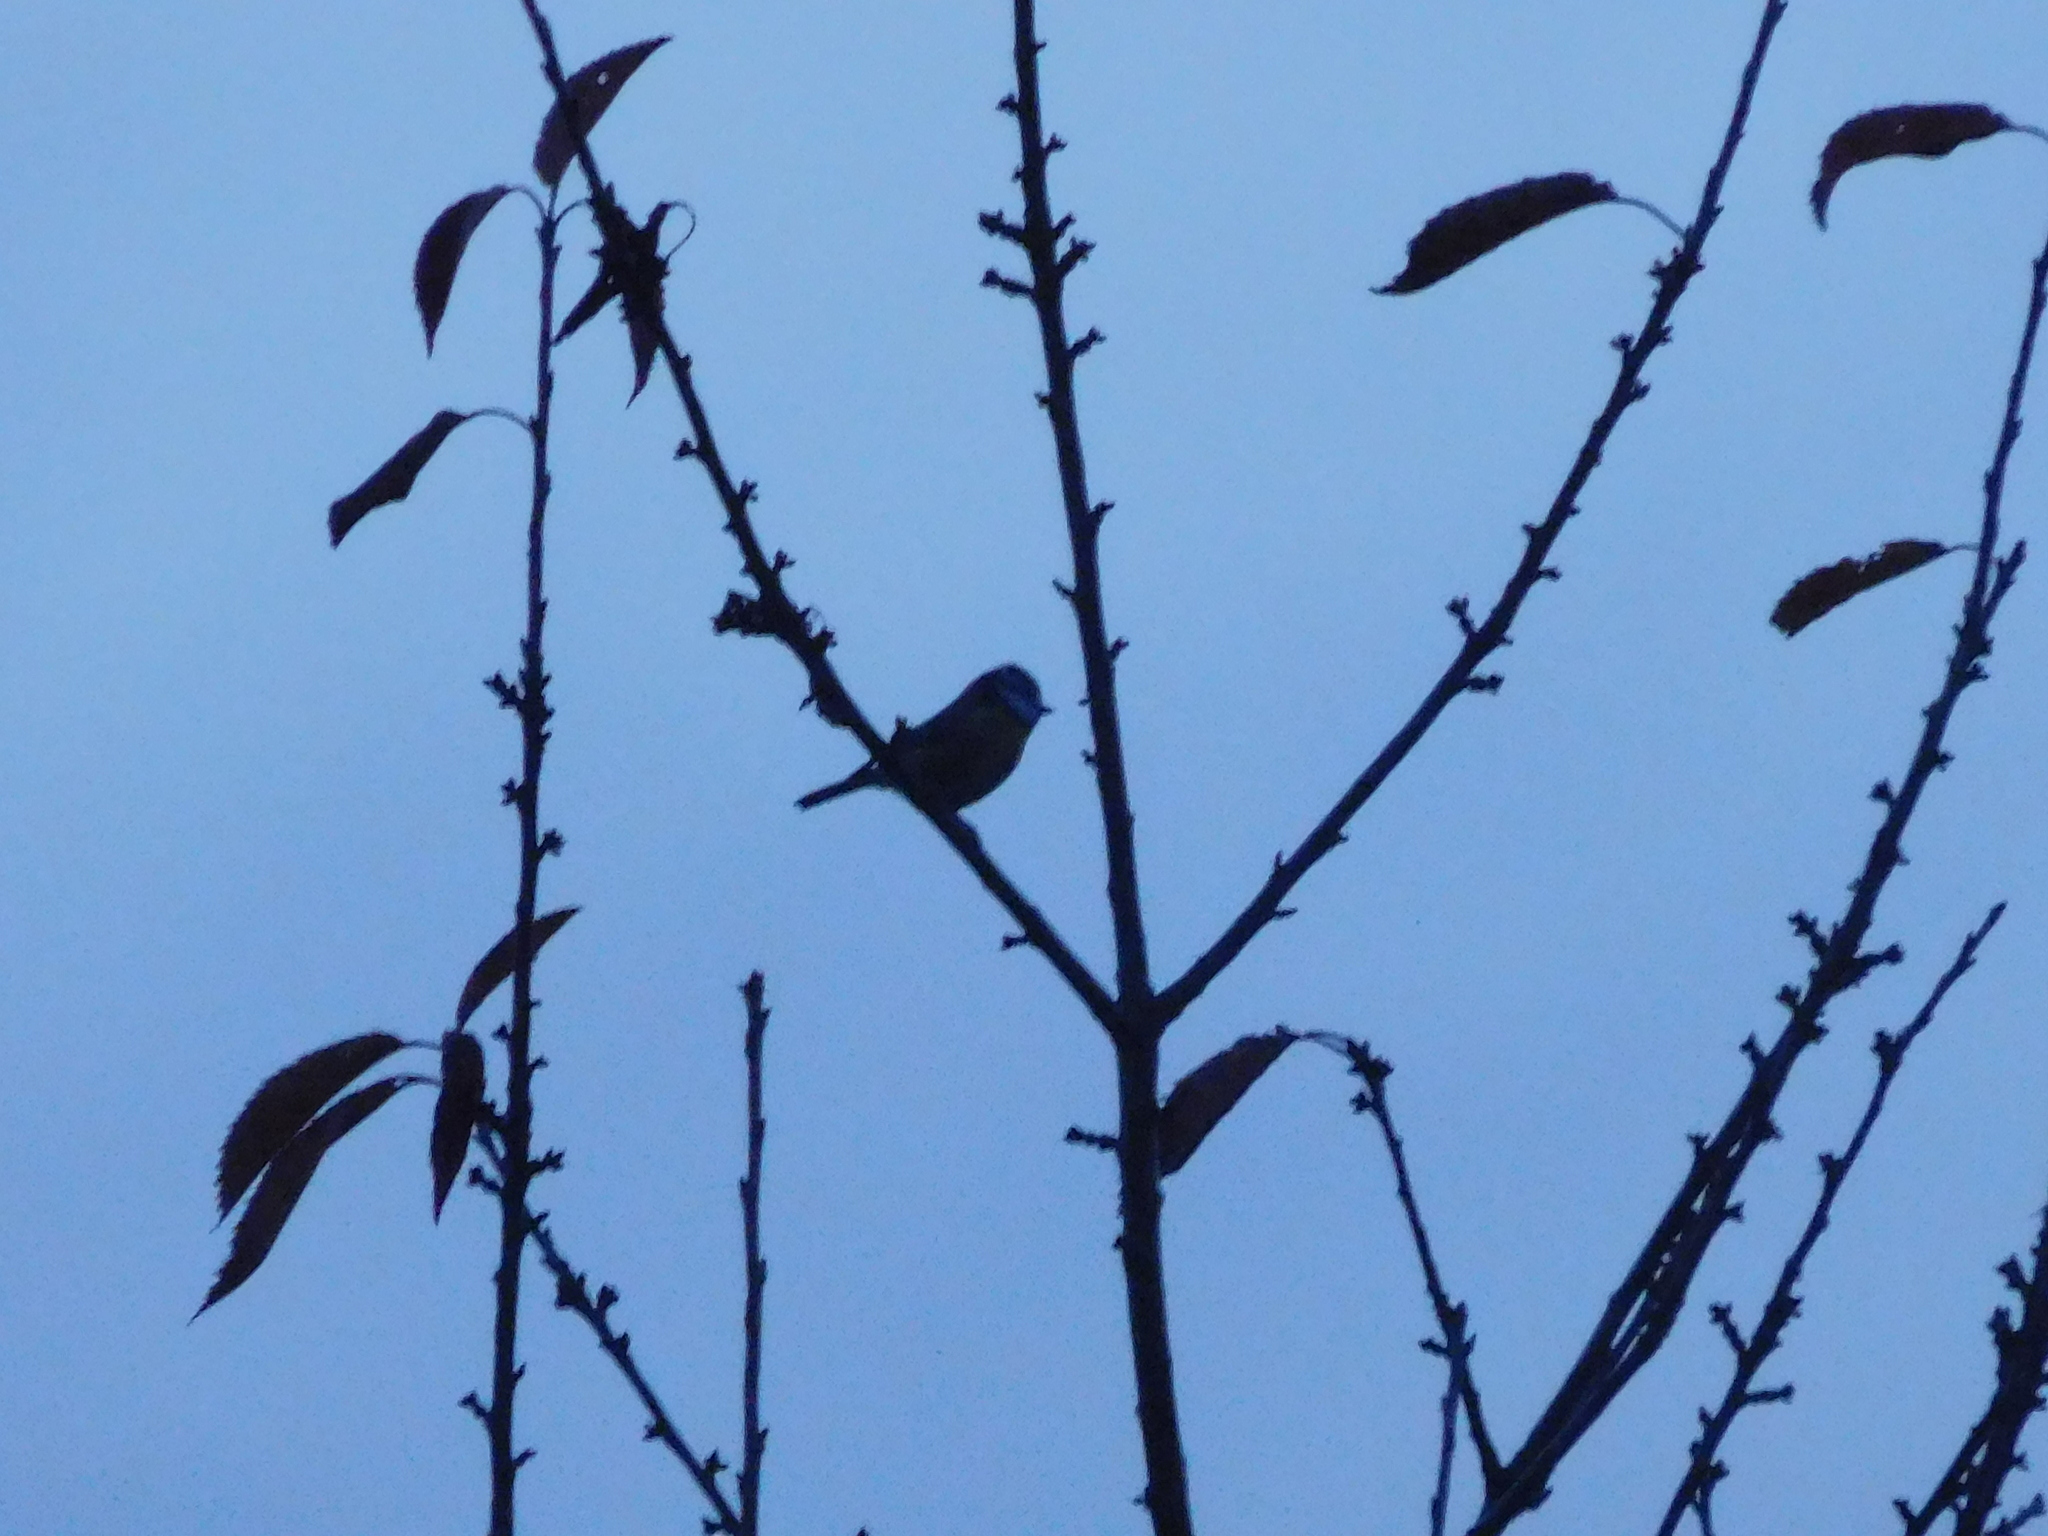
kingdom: Animalia
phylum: Chordata
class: Aves
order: Passeriformes
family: Paridae
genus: Cyanistes
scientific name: Cyanistes caeruleus
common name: Eurasian blue tit
